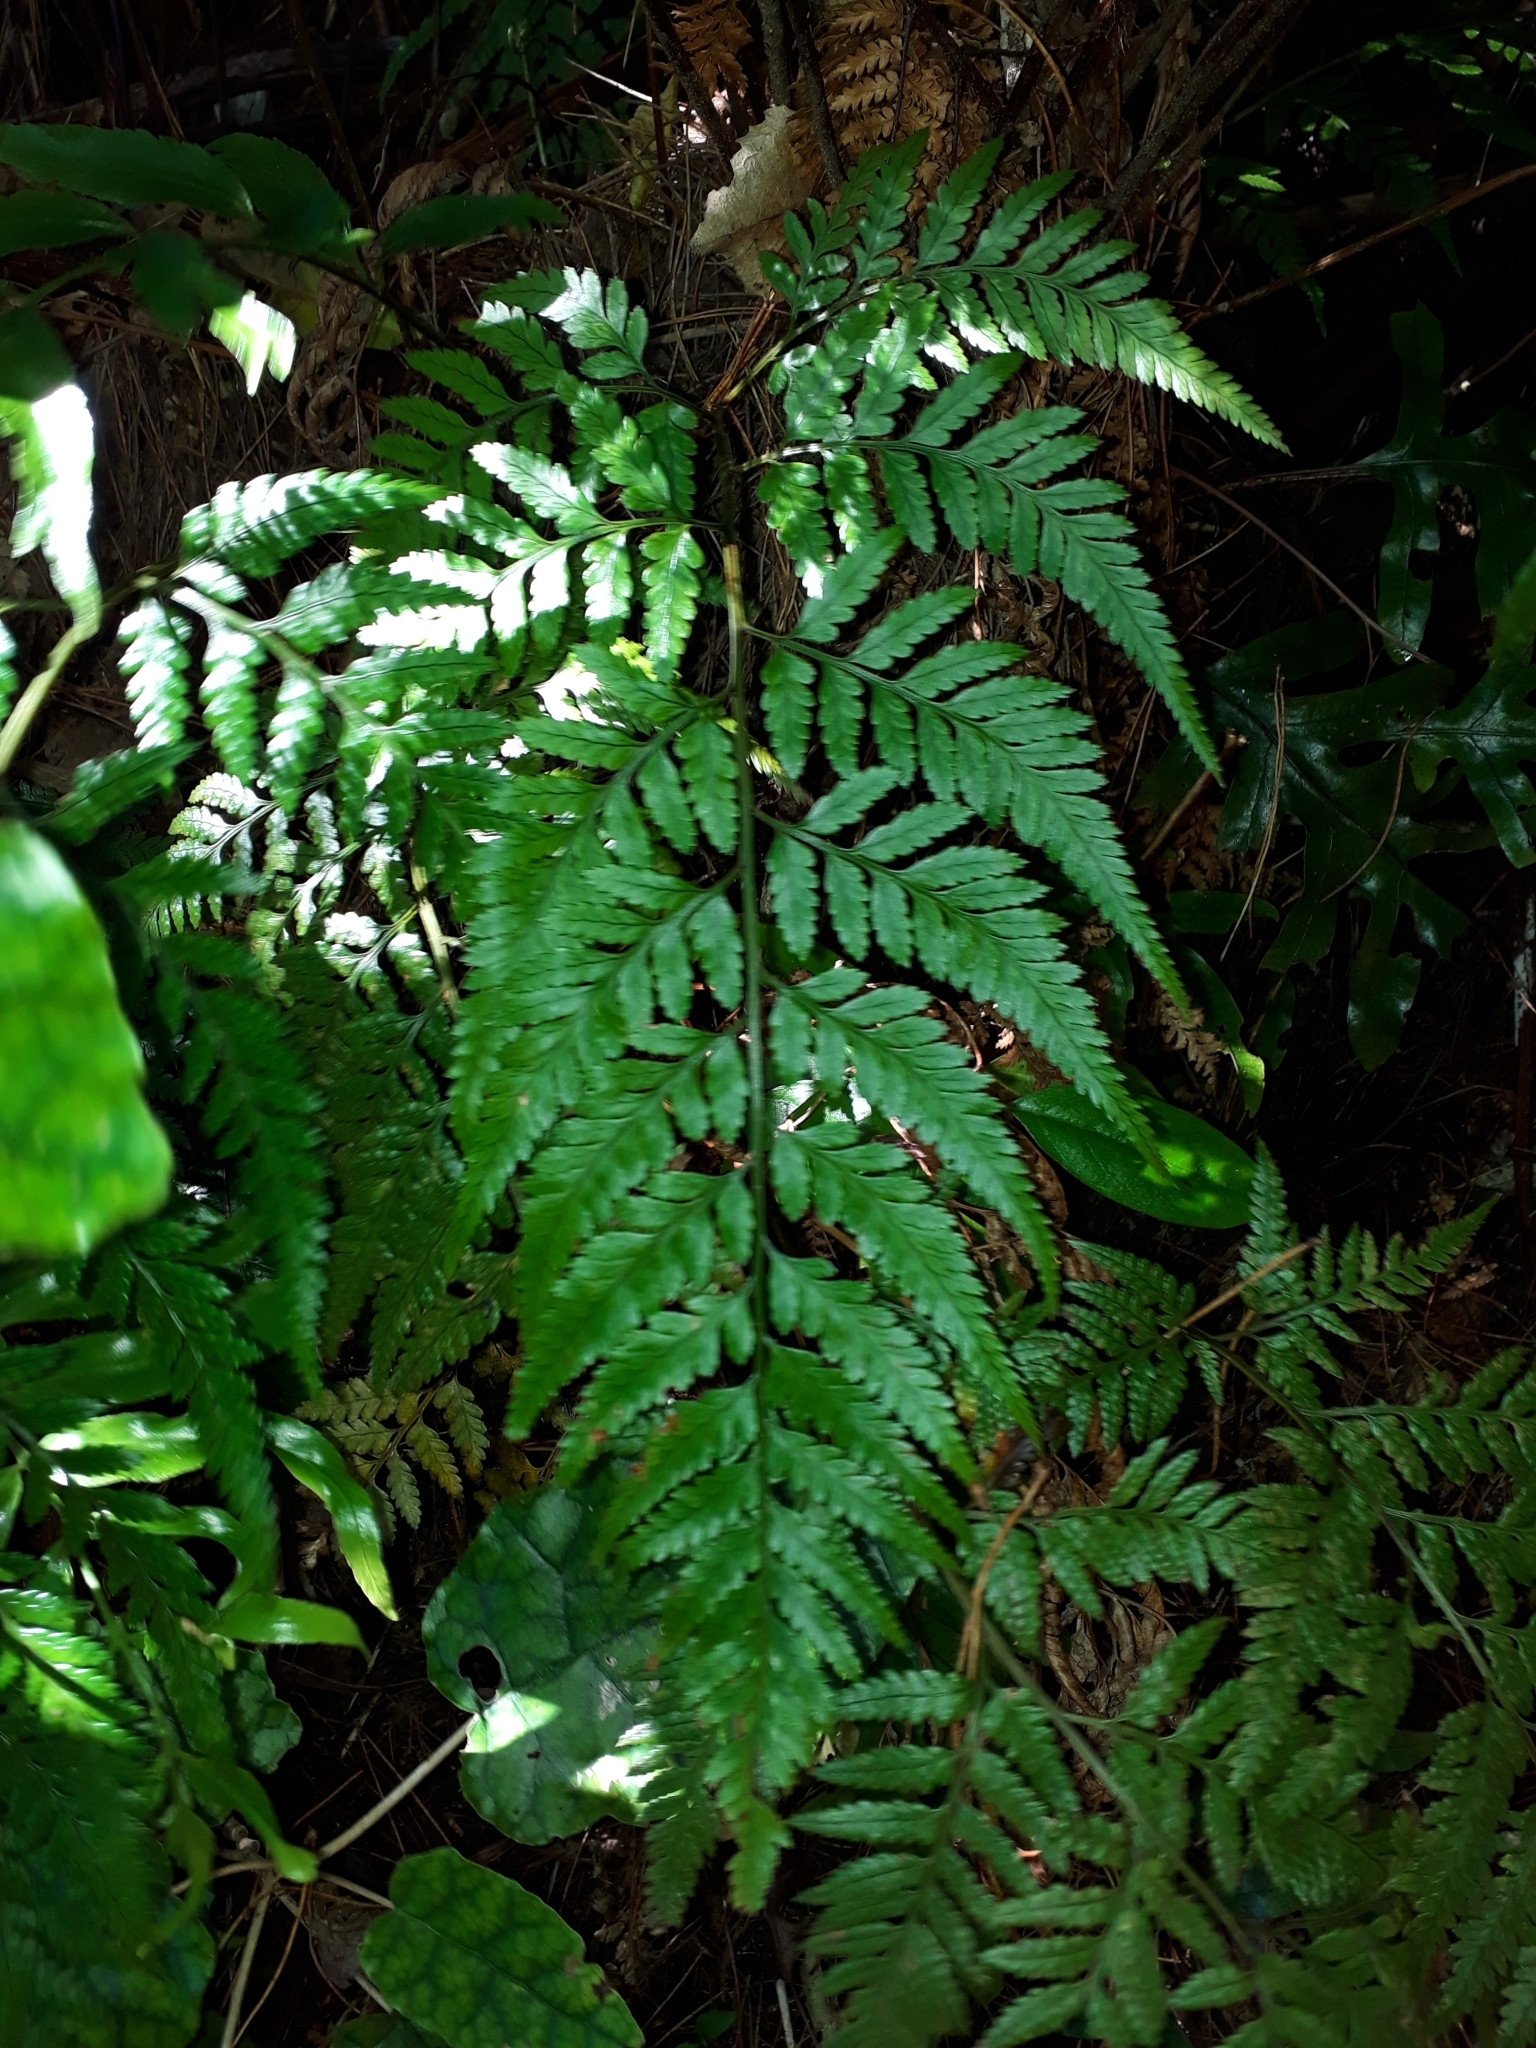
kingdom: Plantae
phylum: Tracheophyta
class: Polypodiopsida
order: Polypodiales
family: Dryopteridaceae
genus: Rumohra
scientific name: Rumohra adiantiformis
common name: Leather fern
